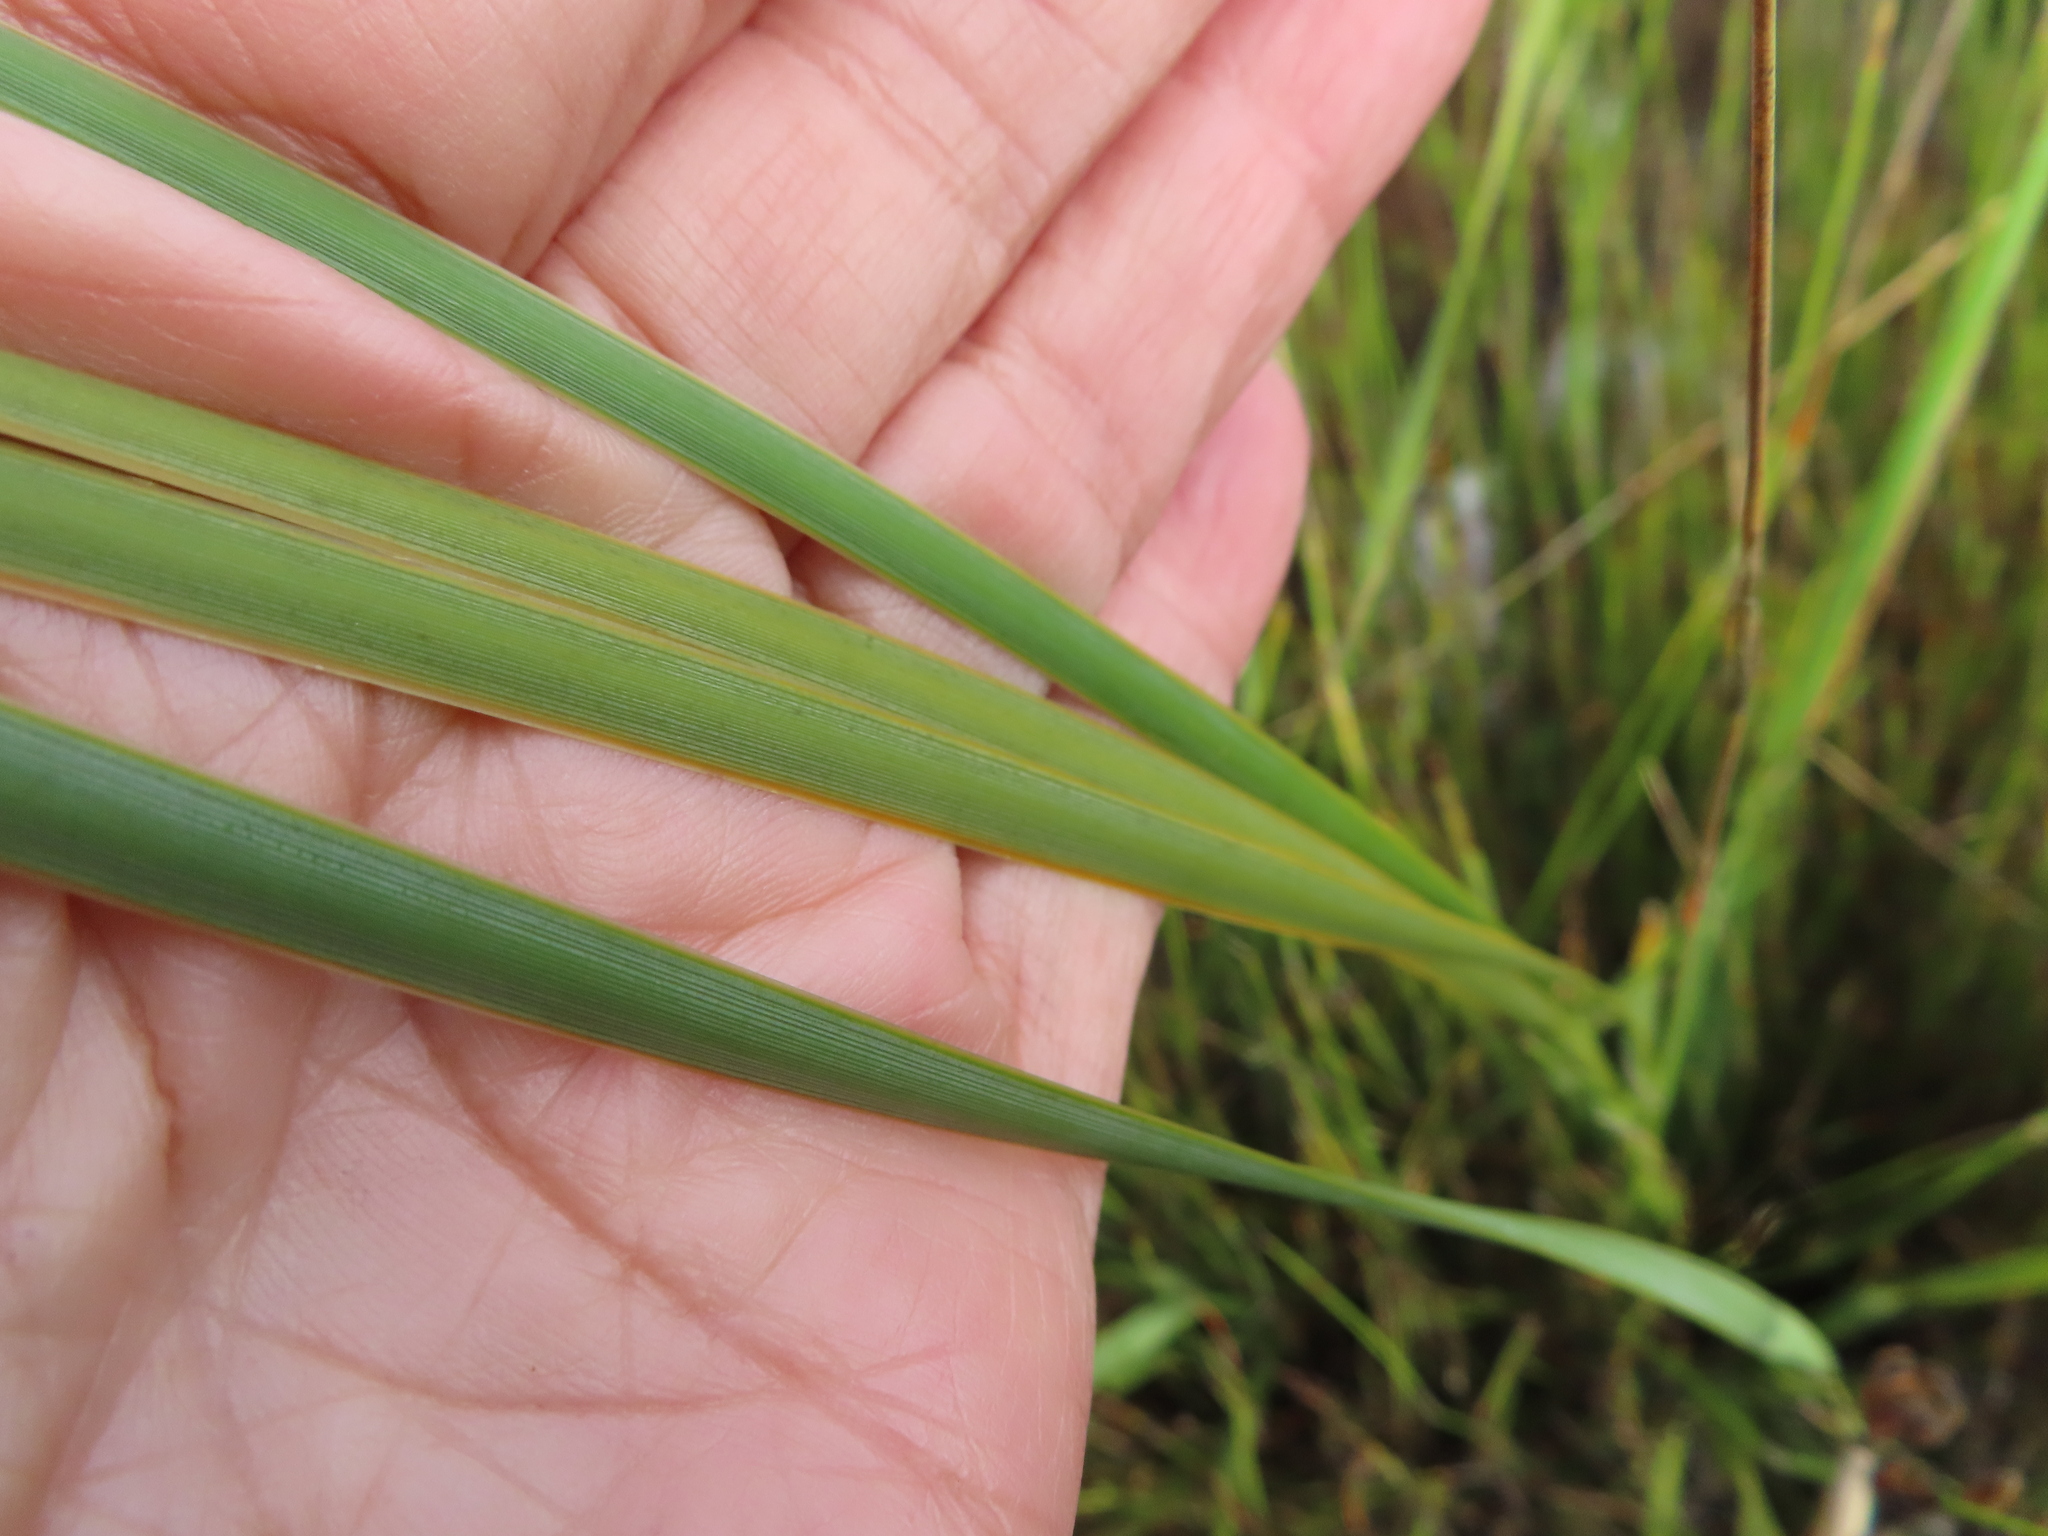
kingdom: Plantae
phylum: Tracheophyta
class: Liliopsida
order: Asparagales
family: Iridaceae
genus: Bobartia
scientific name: Bobartia gladiata
